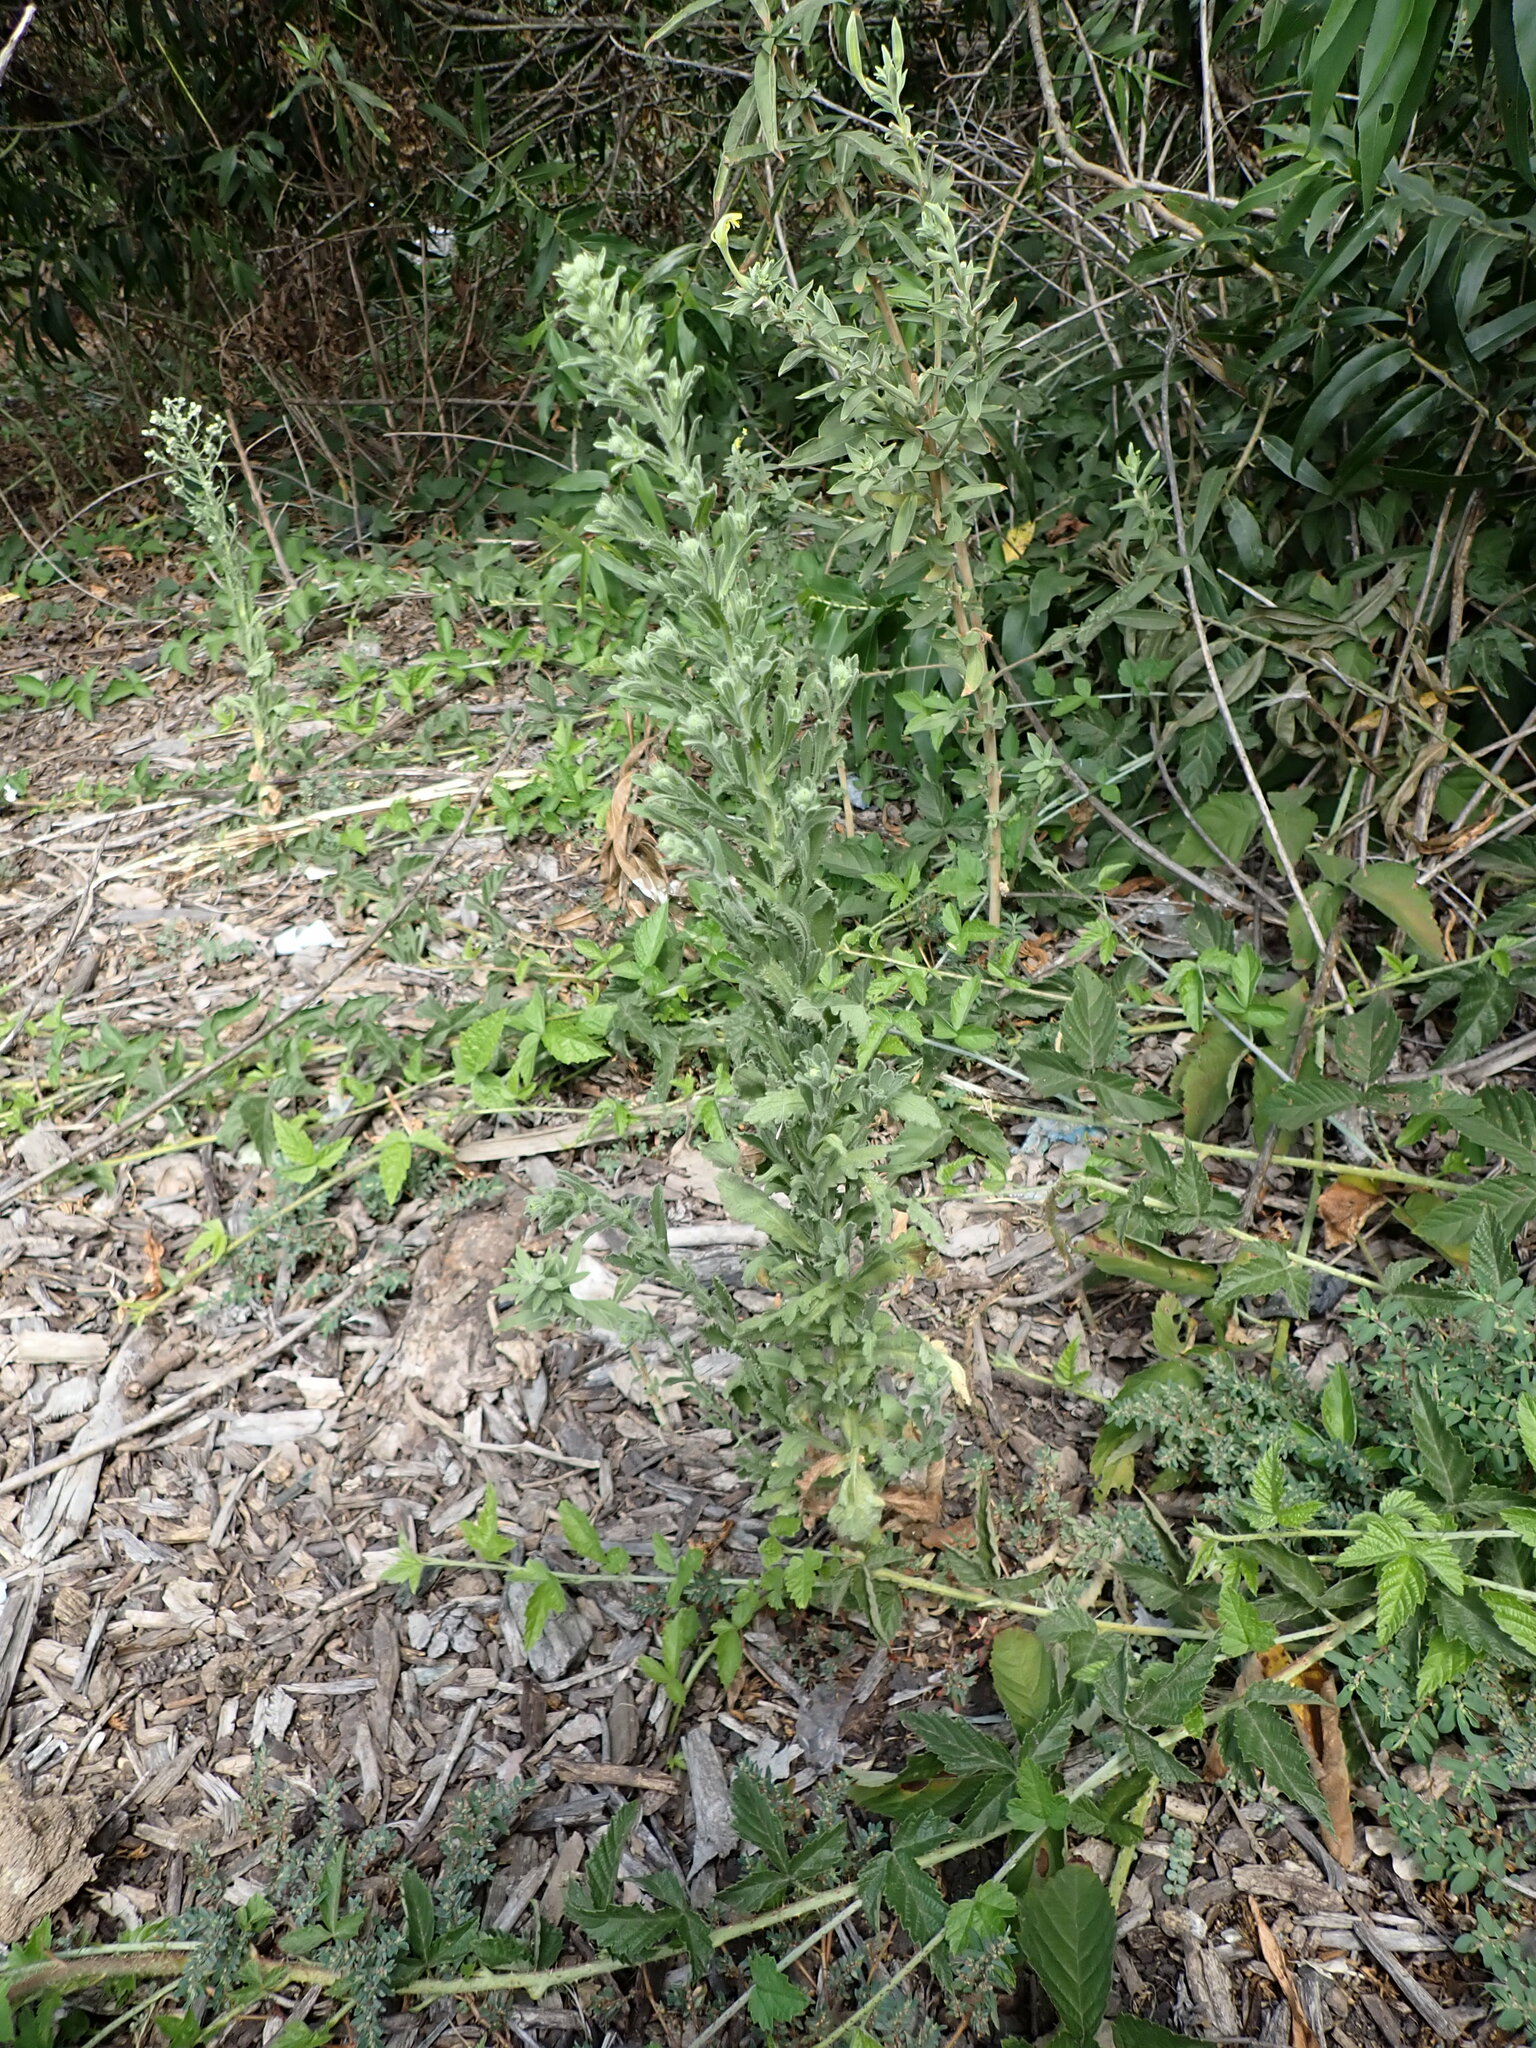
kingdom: Plantae
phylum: Tracheophyta
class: Magnoliopsida
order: Asterales
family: Asteraceae
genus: Laennecia
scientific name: Laennecia coulteri
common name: Coulter's woolwort
